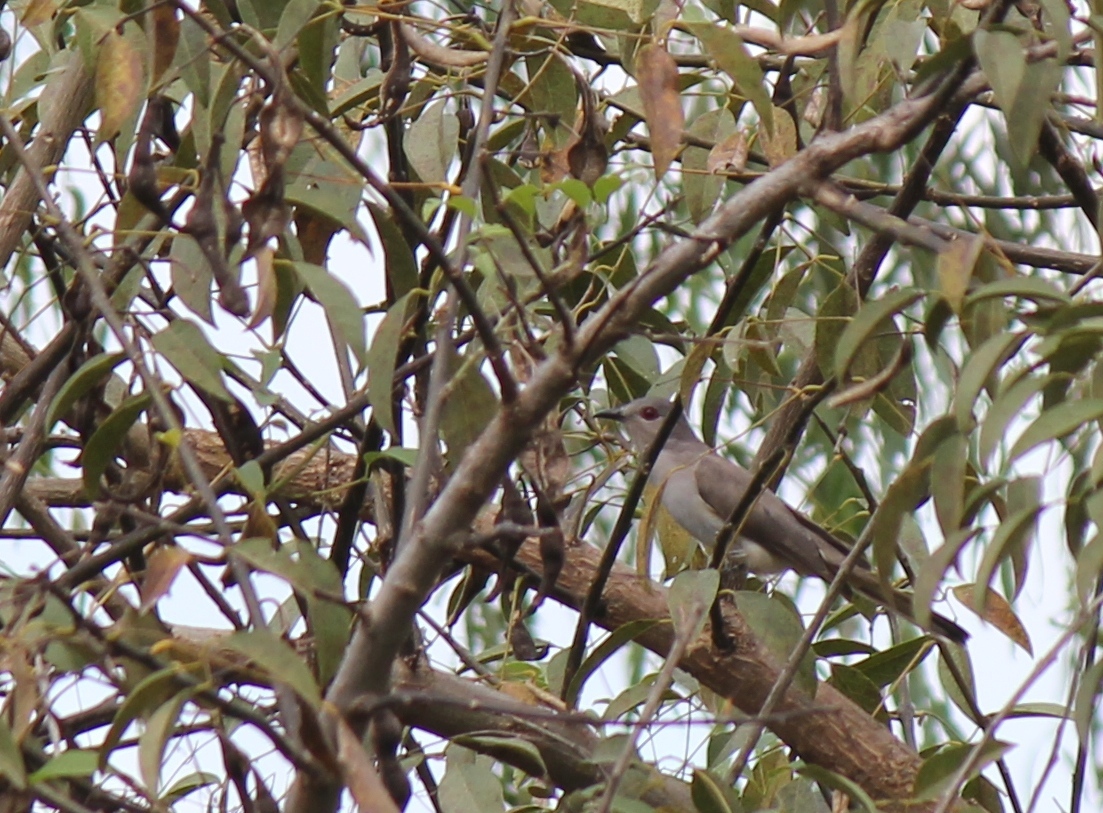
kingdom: Animalia
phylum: Chordata
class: Aves
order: Cuculiformes
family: Cuculidae
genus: Coccyzus
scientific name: Coccyzus cinereus
